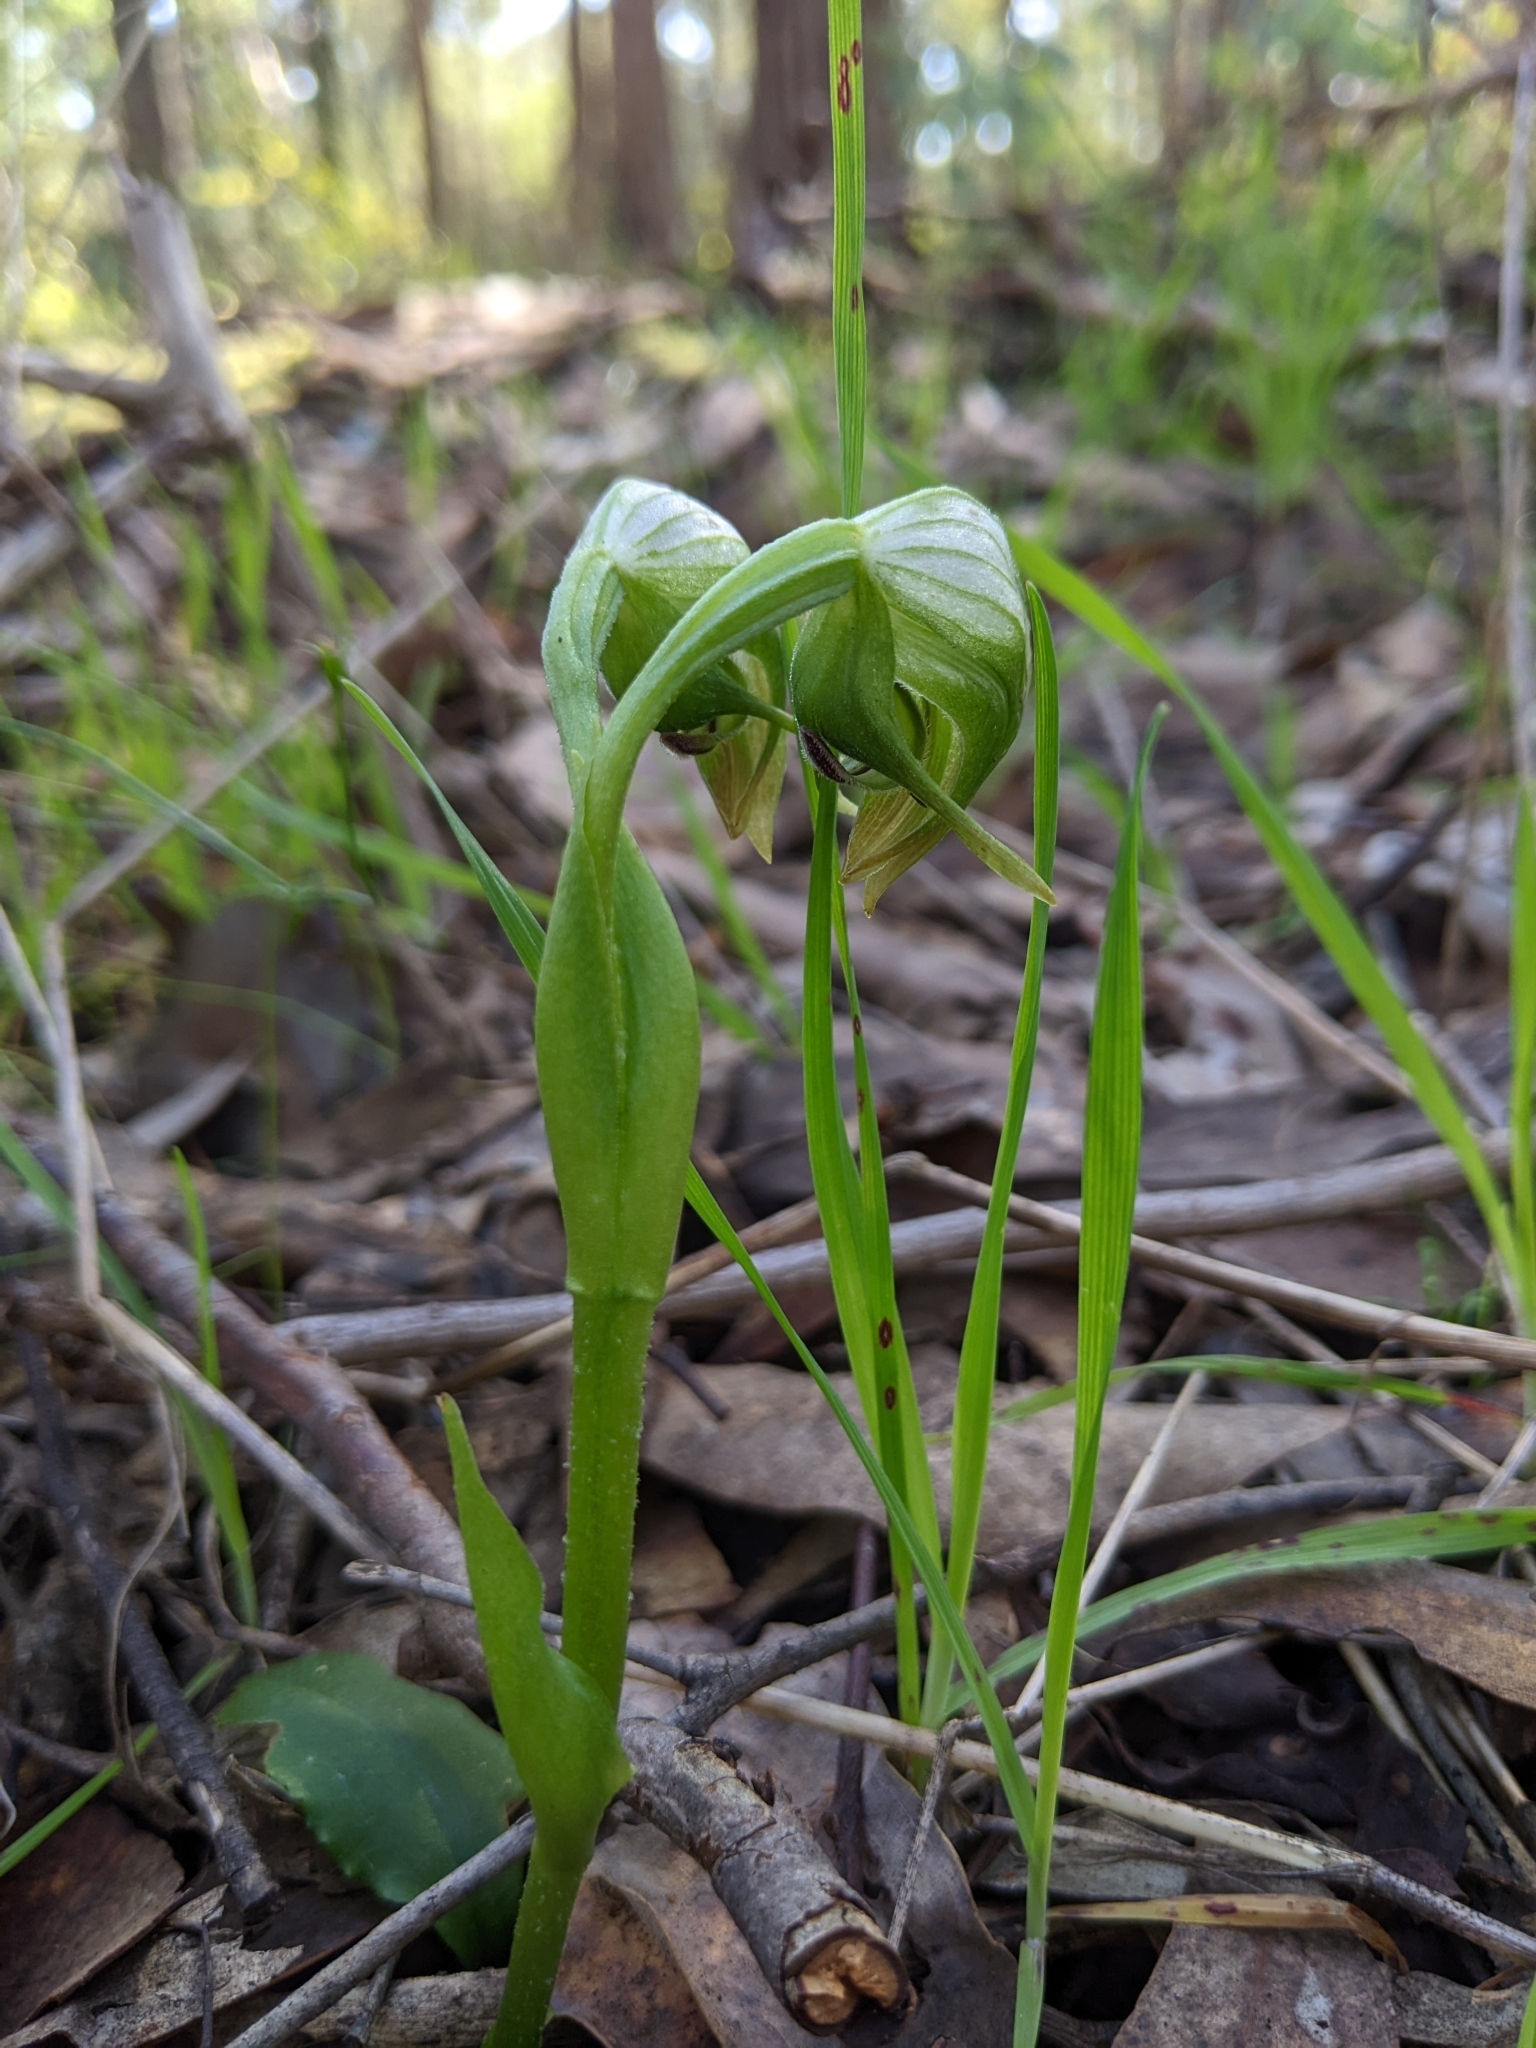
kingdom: Plantae
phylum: Tracheophyta
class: Liliopsida
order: Asparagales
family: Orchidaceae
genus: Pterostylis
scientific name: Pterostylis nutans
